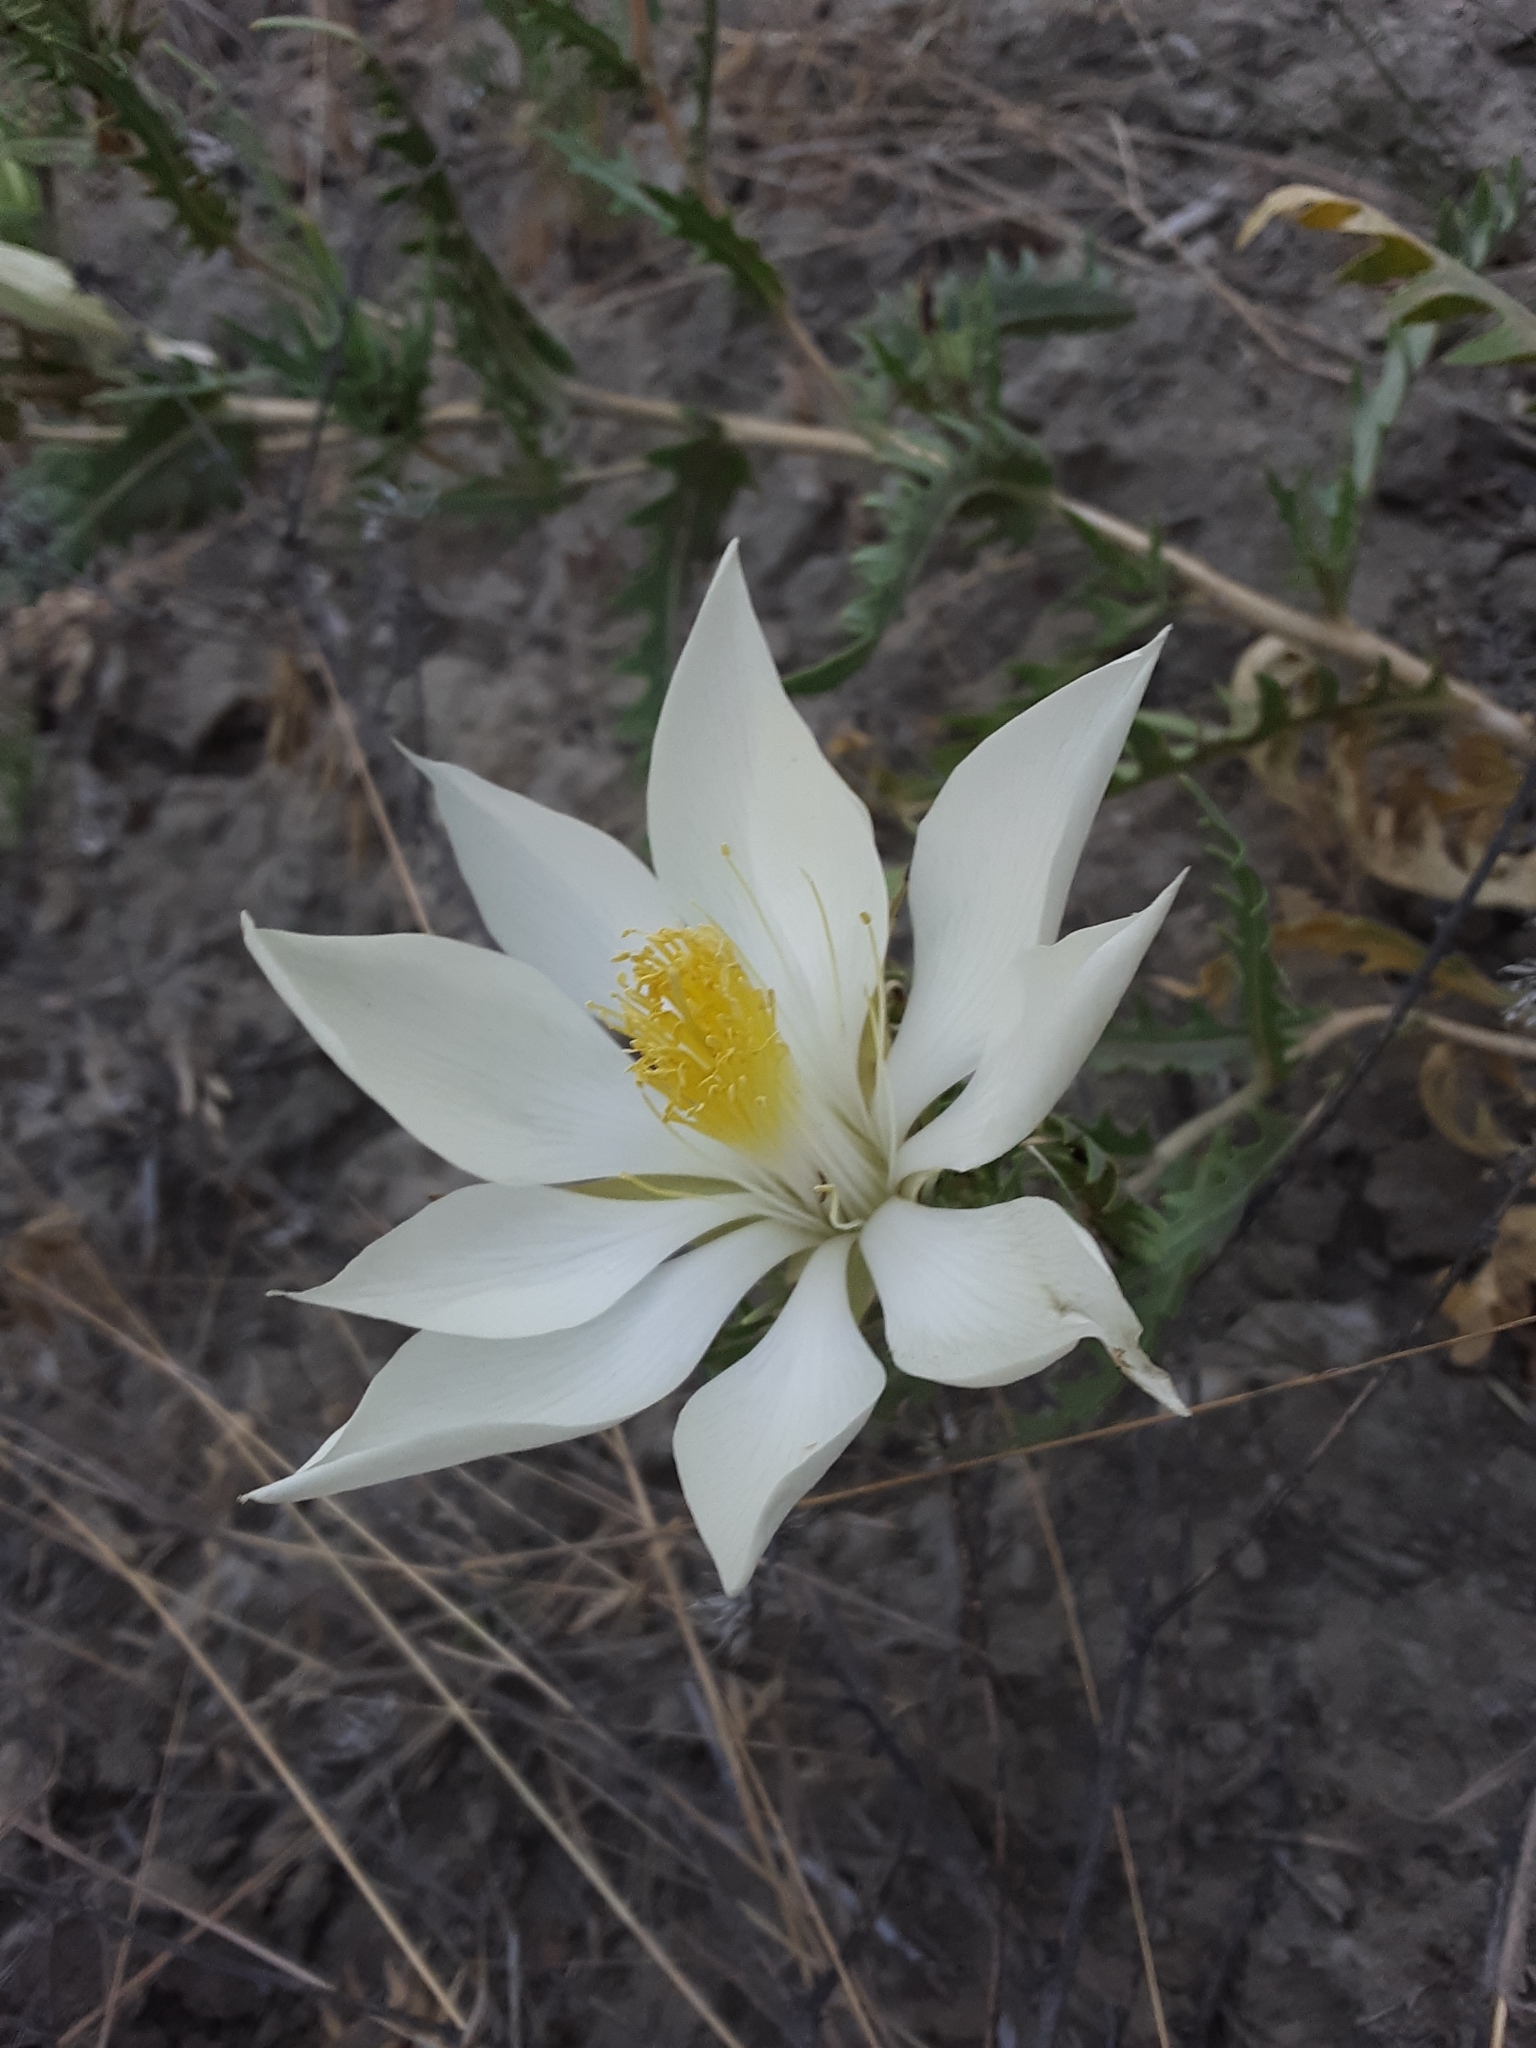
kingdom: Plantae
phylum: Tracheophyta
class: Magnoliopsida
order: Cornales
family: Loasaceae
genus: Mentzelia
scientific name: Mentzelia decapetala
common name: Gumbo-lily
